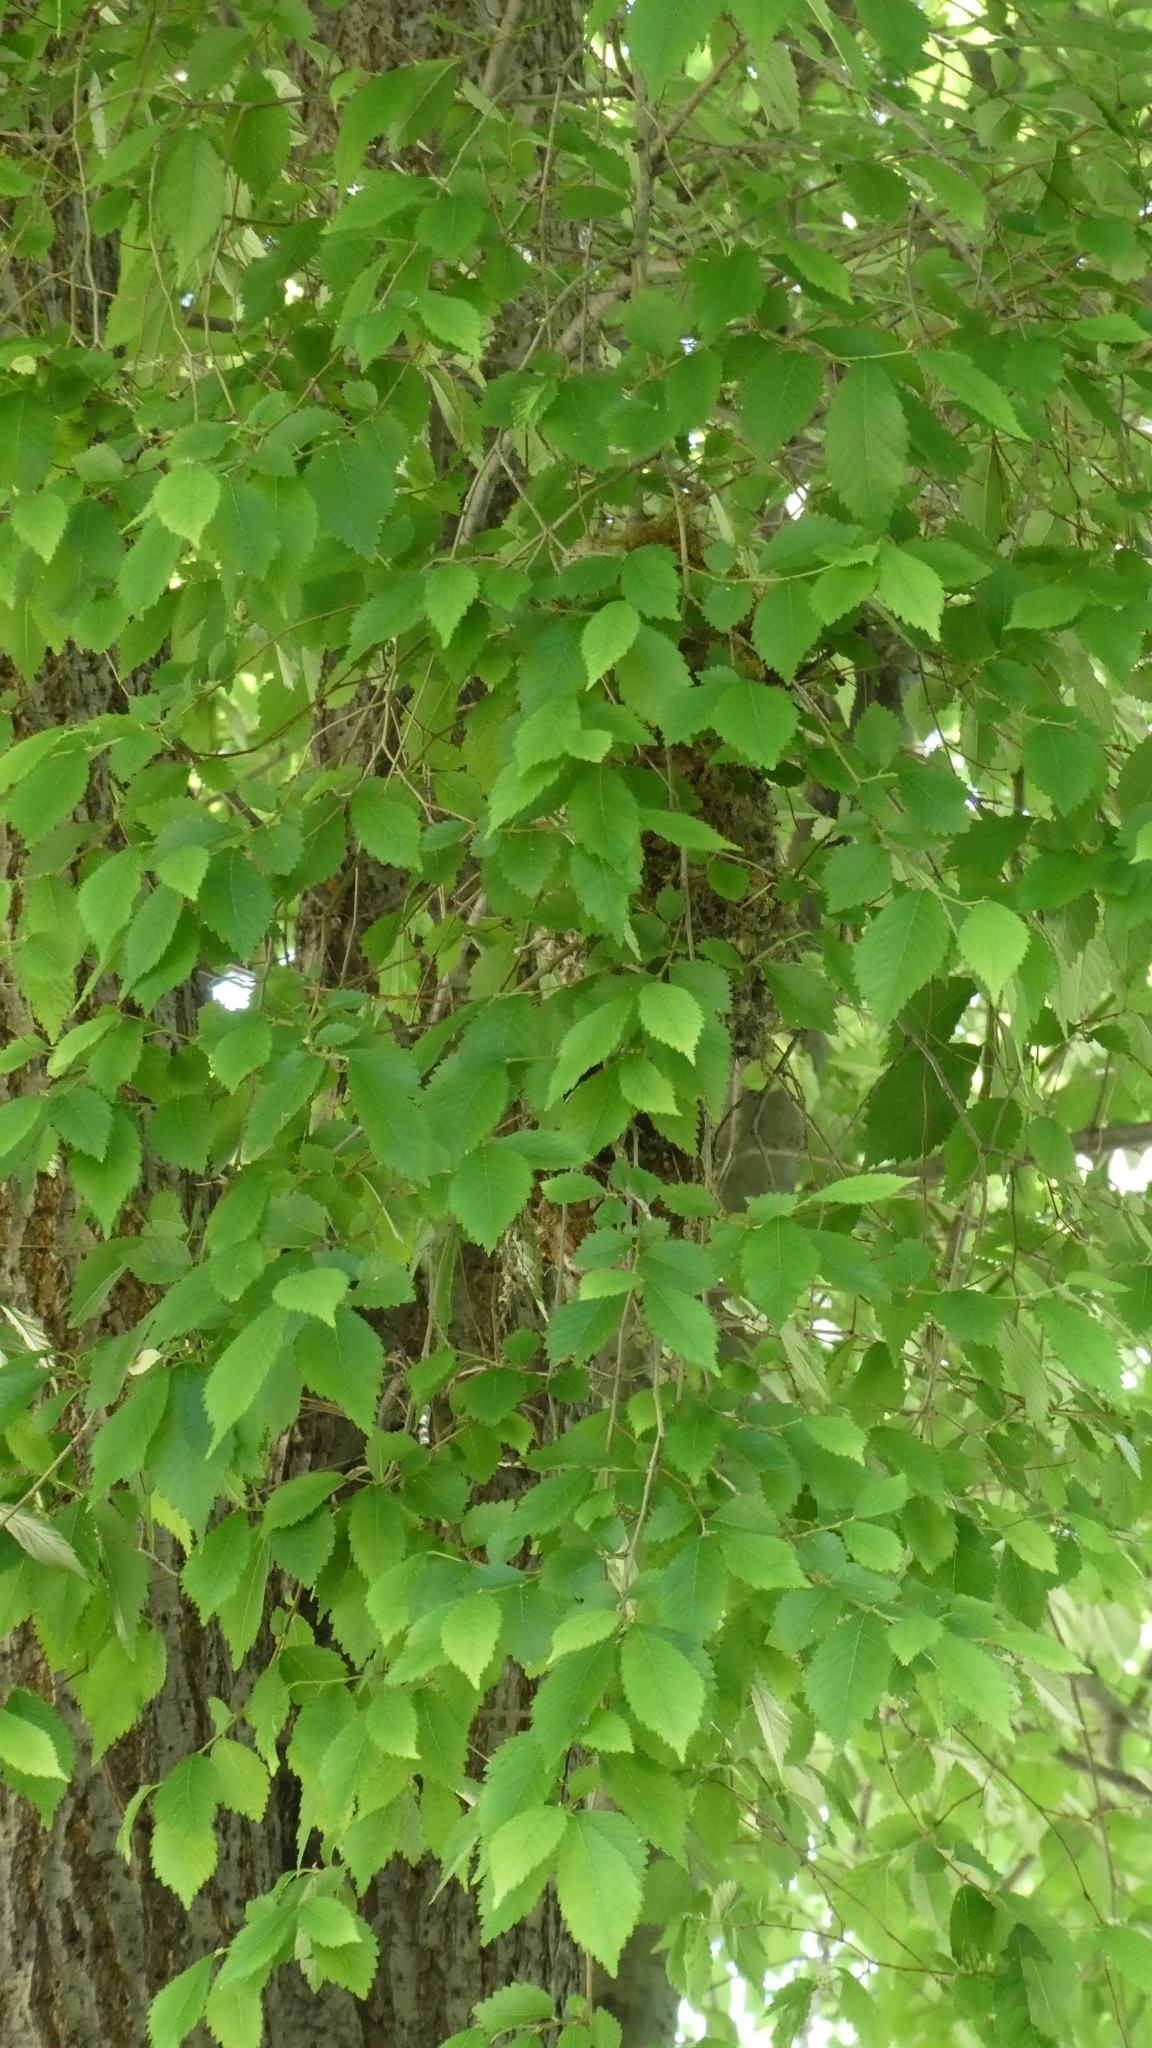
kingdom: Animalia
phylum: Chordata
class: Aves
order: Passeriformes
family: Aegithalidae
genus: Psaltriparus
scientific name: Psaltriparus minimus
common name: American bushtit
